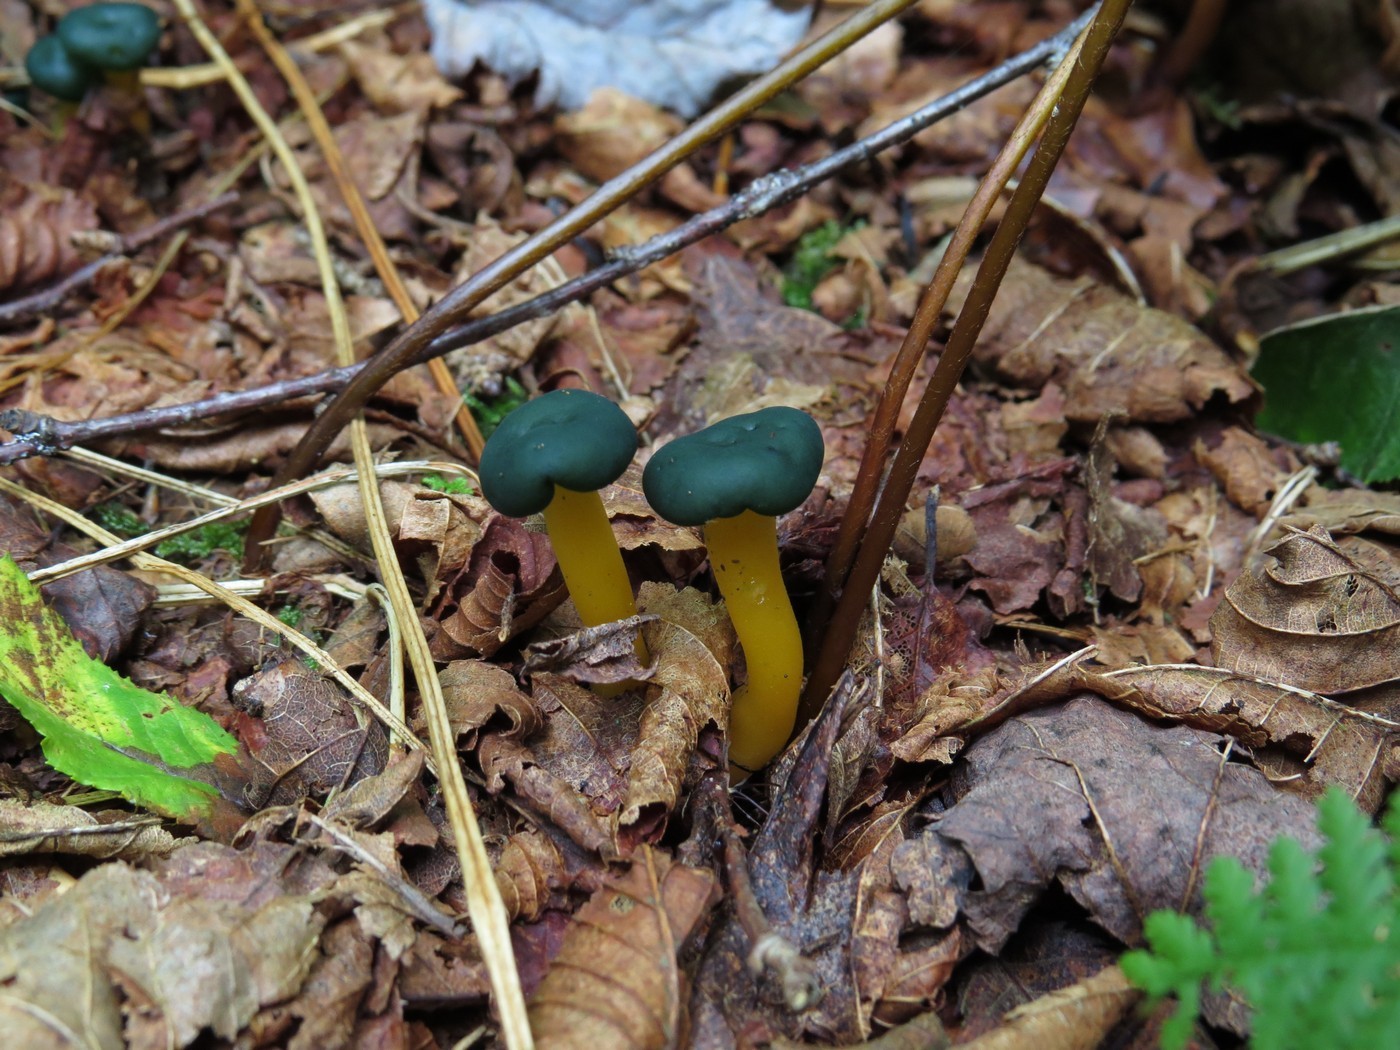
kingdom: Fungi
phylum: Ascomycota
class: Leotiomycetes
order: Leotiales
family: Leotiaceae
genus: Leotia
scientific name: Leotia lubrica
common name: Jellybaby
